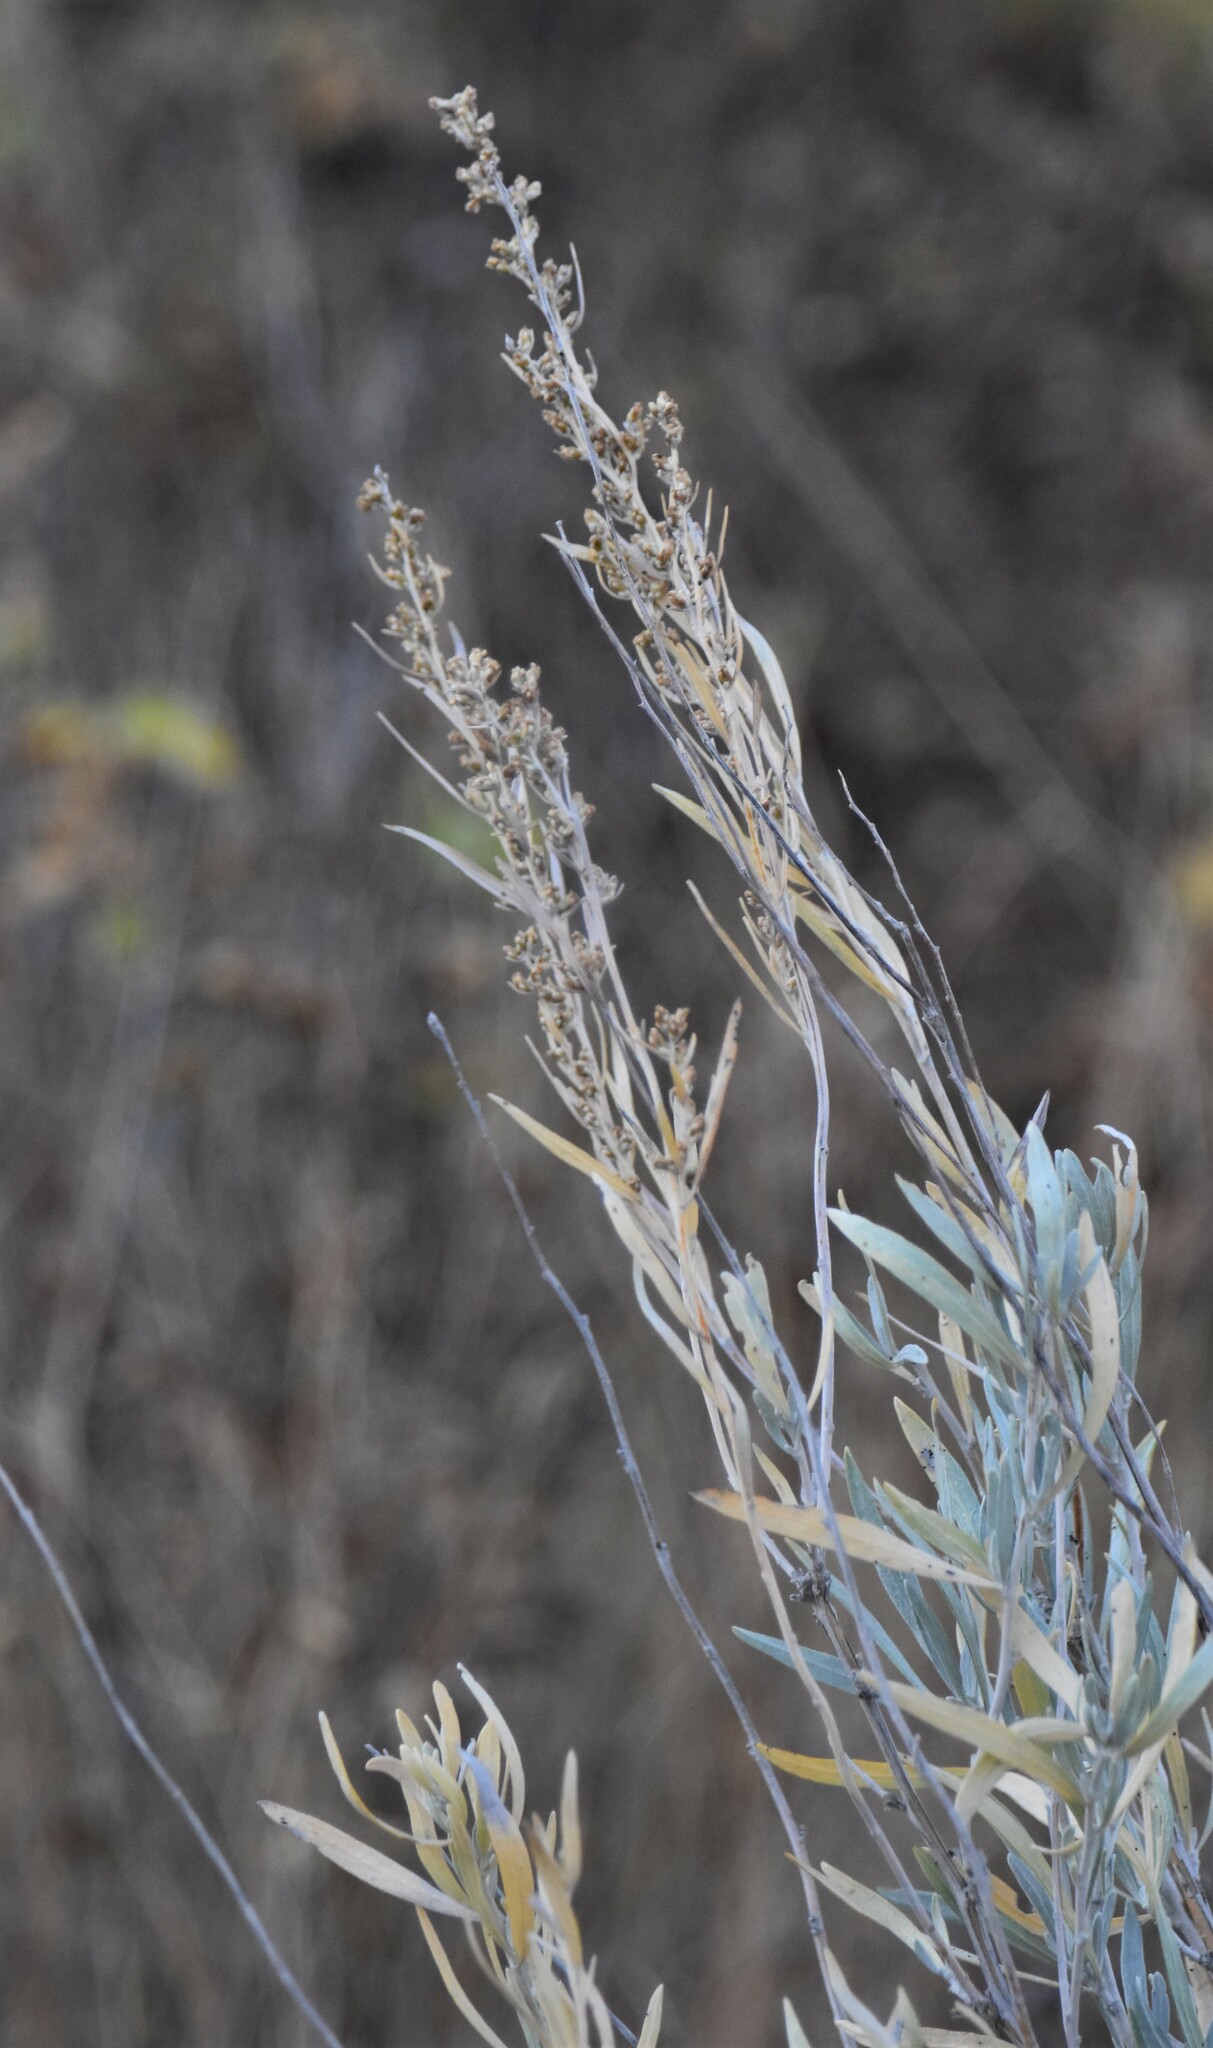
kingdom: Plantae
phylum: Tracheophyta
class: Magnoliopsida
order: Asterales
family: Asteraceae
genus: Artemisia
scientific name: Artemisia cana
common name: Silver sagebrush
